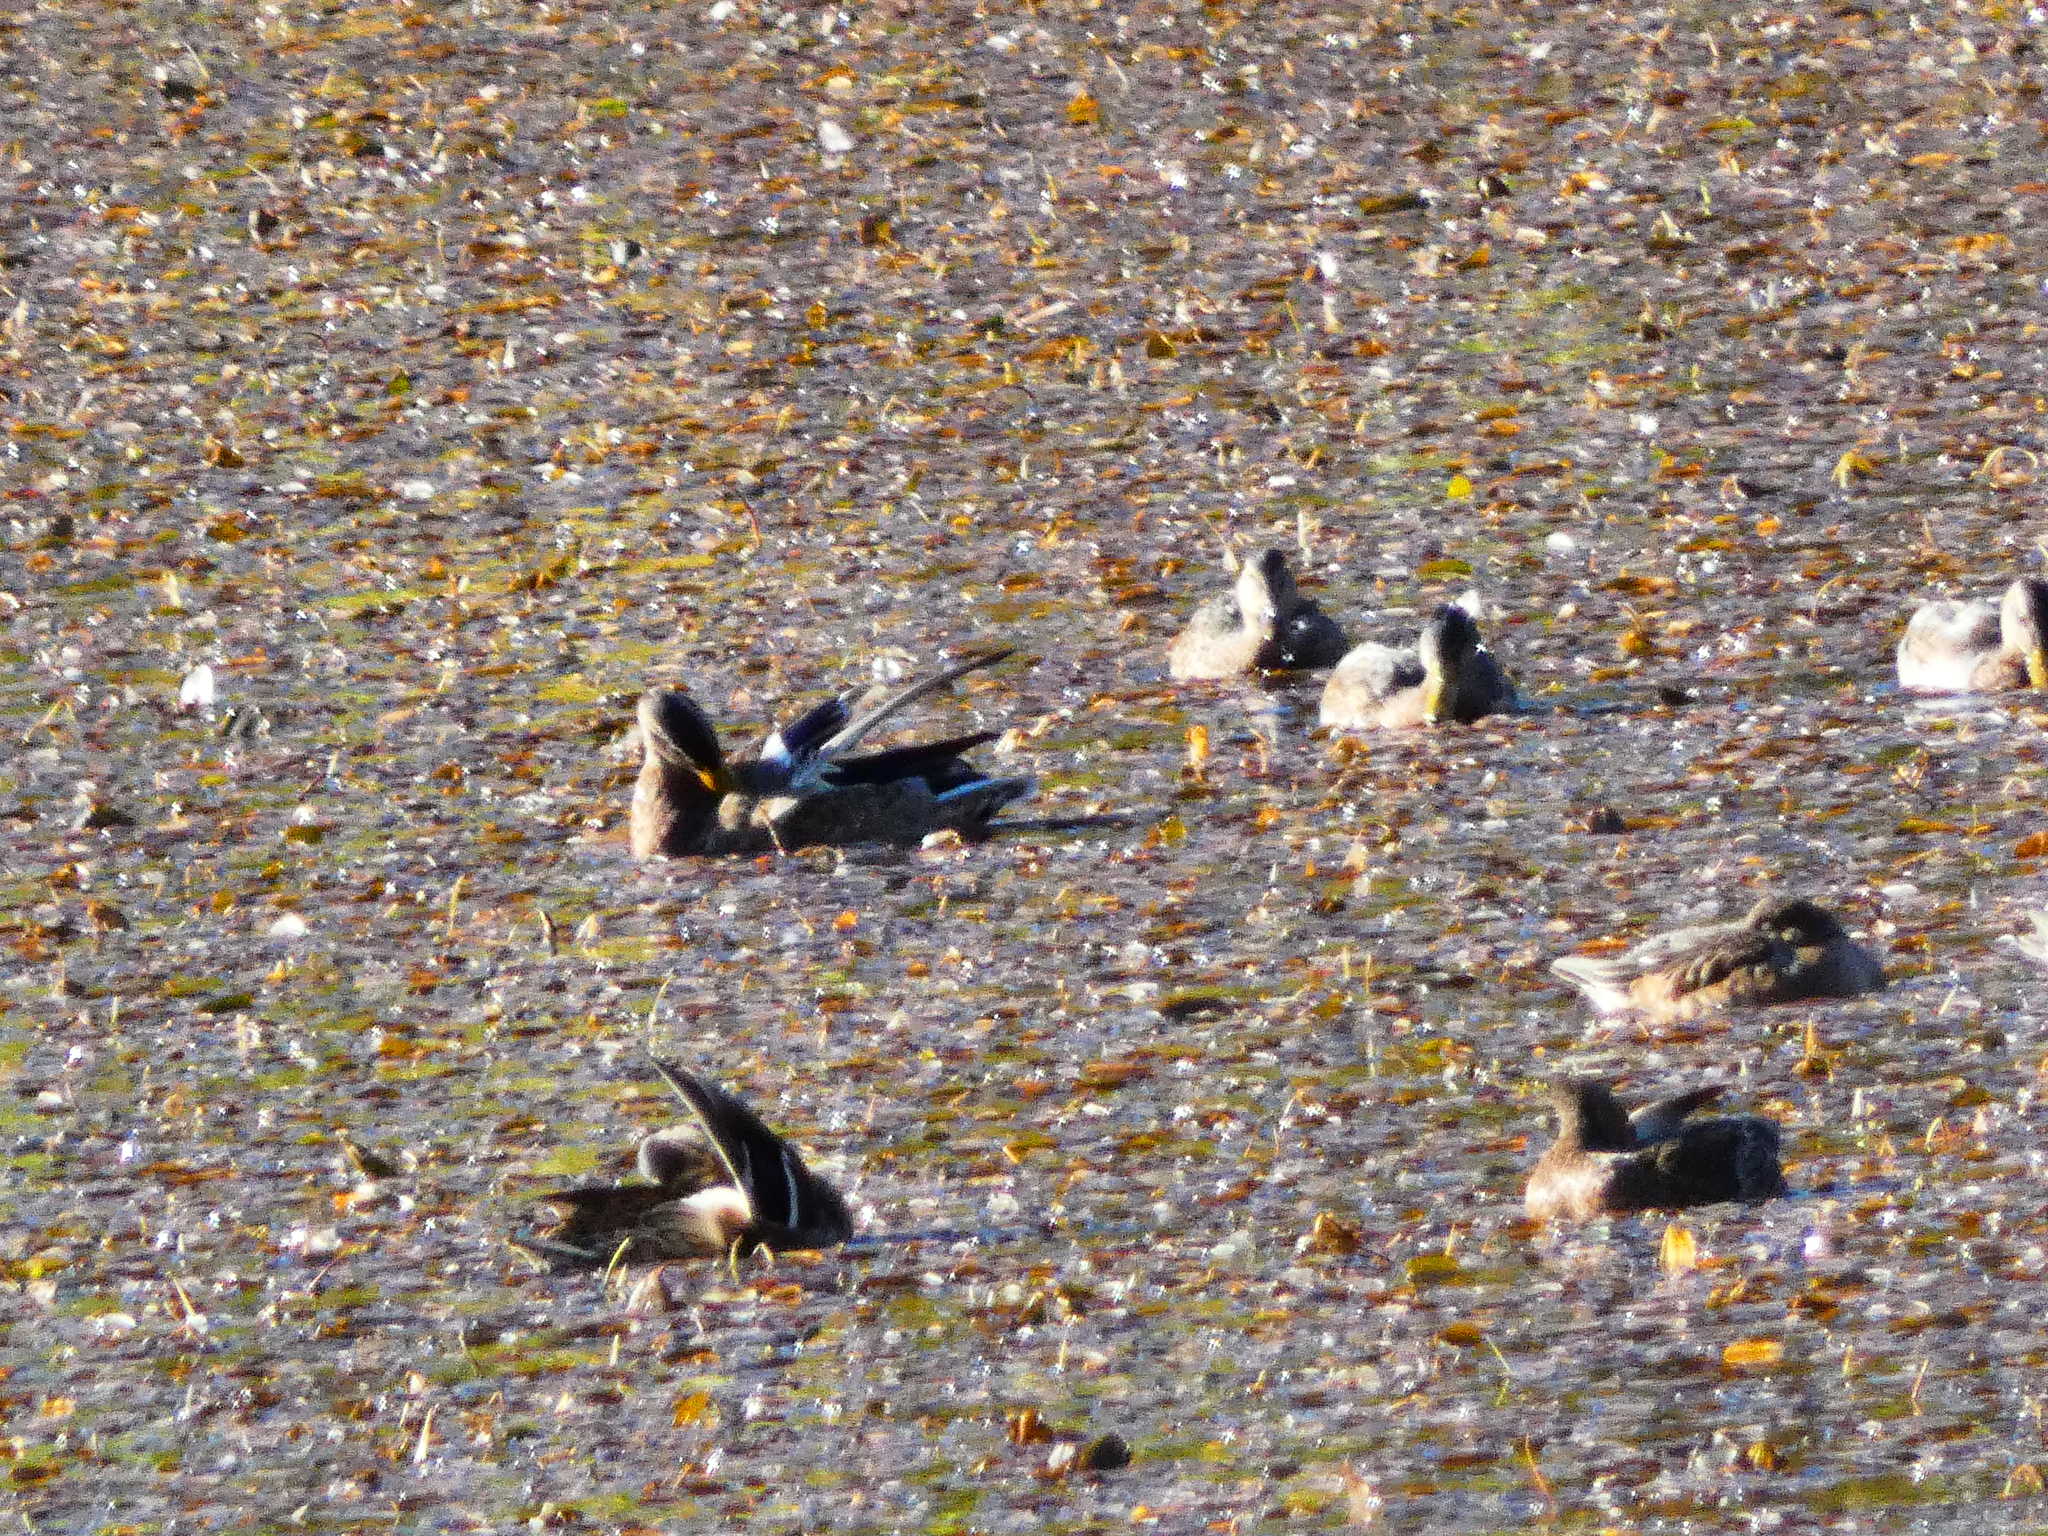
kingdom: Animalia
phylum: Chordata
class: Aves
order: Anseriformes
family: Anatidae
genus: Anas
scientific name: Anas platyrhynchos
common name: Mallard
